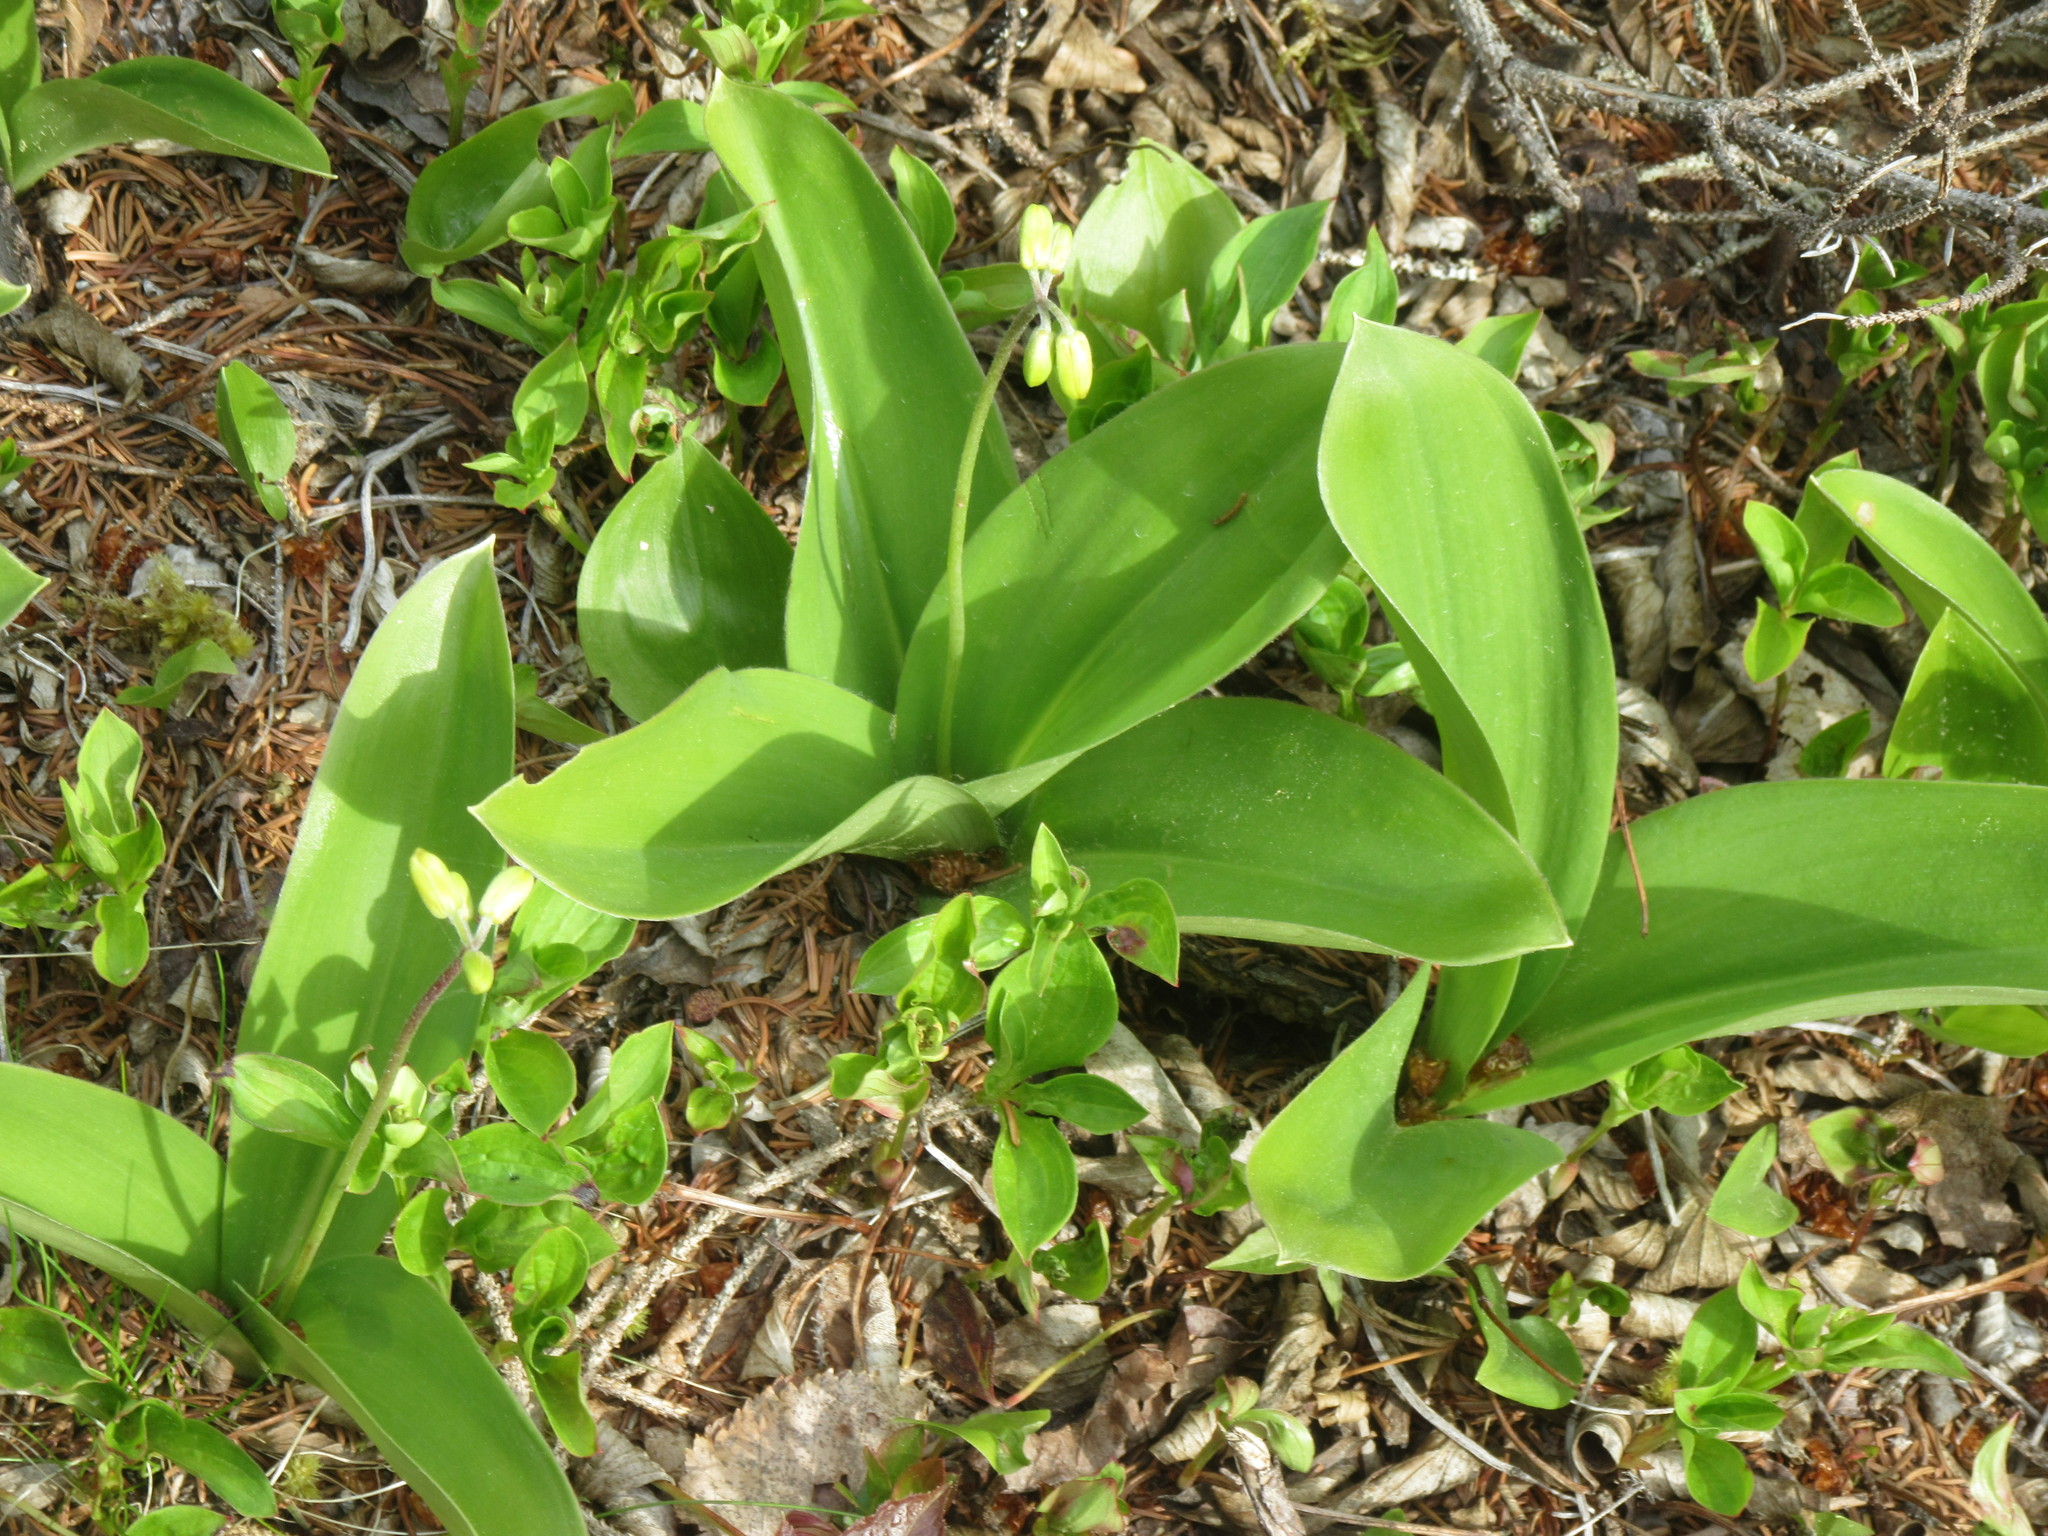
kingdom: Plantae
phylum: Tracheophyta
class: Liliopsida
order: Liliales
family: Liliaceae
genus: Clintonia
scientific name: Clintonia borealis
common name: Yellow clintonia
